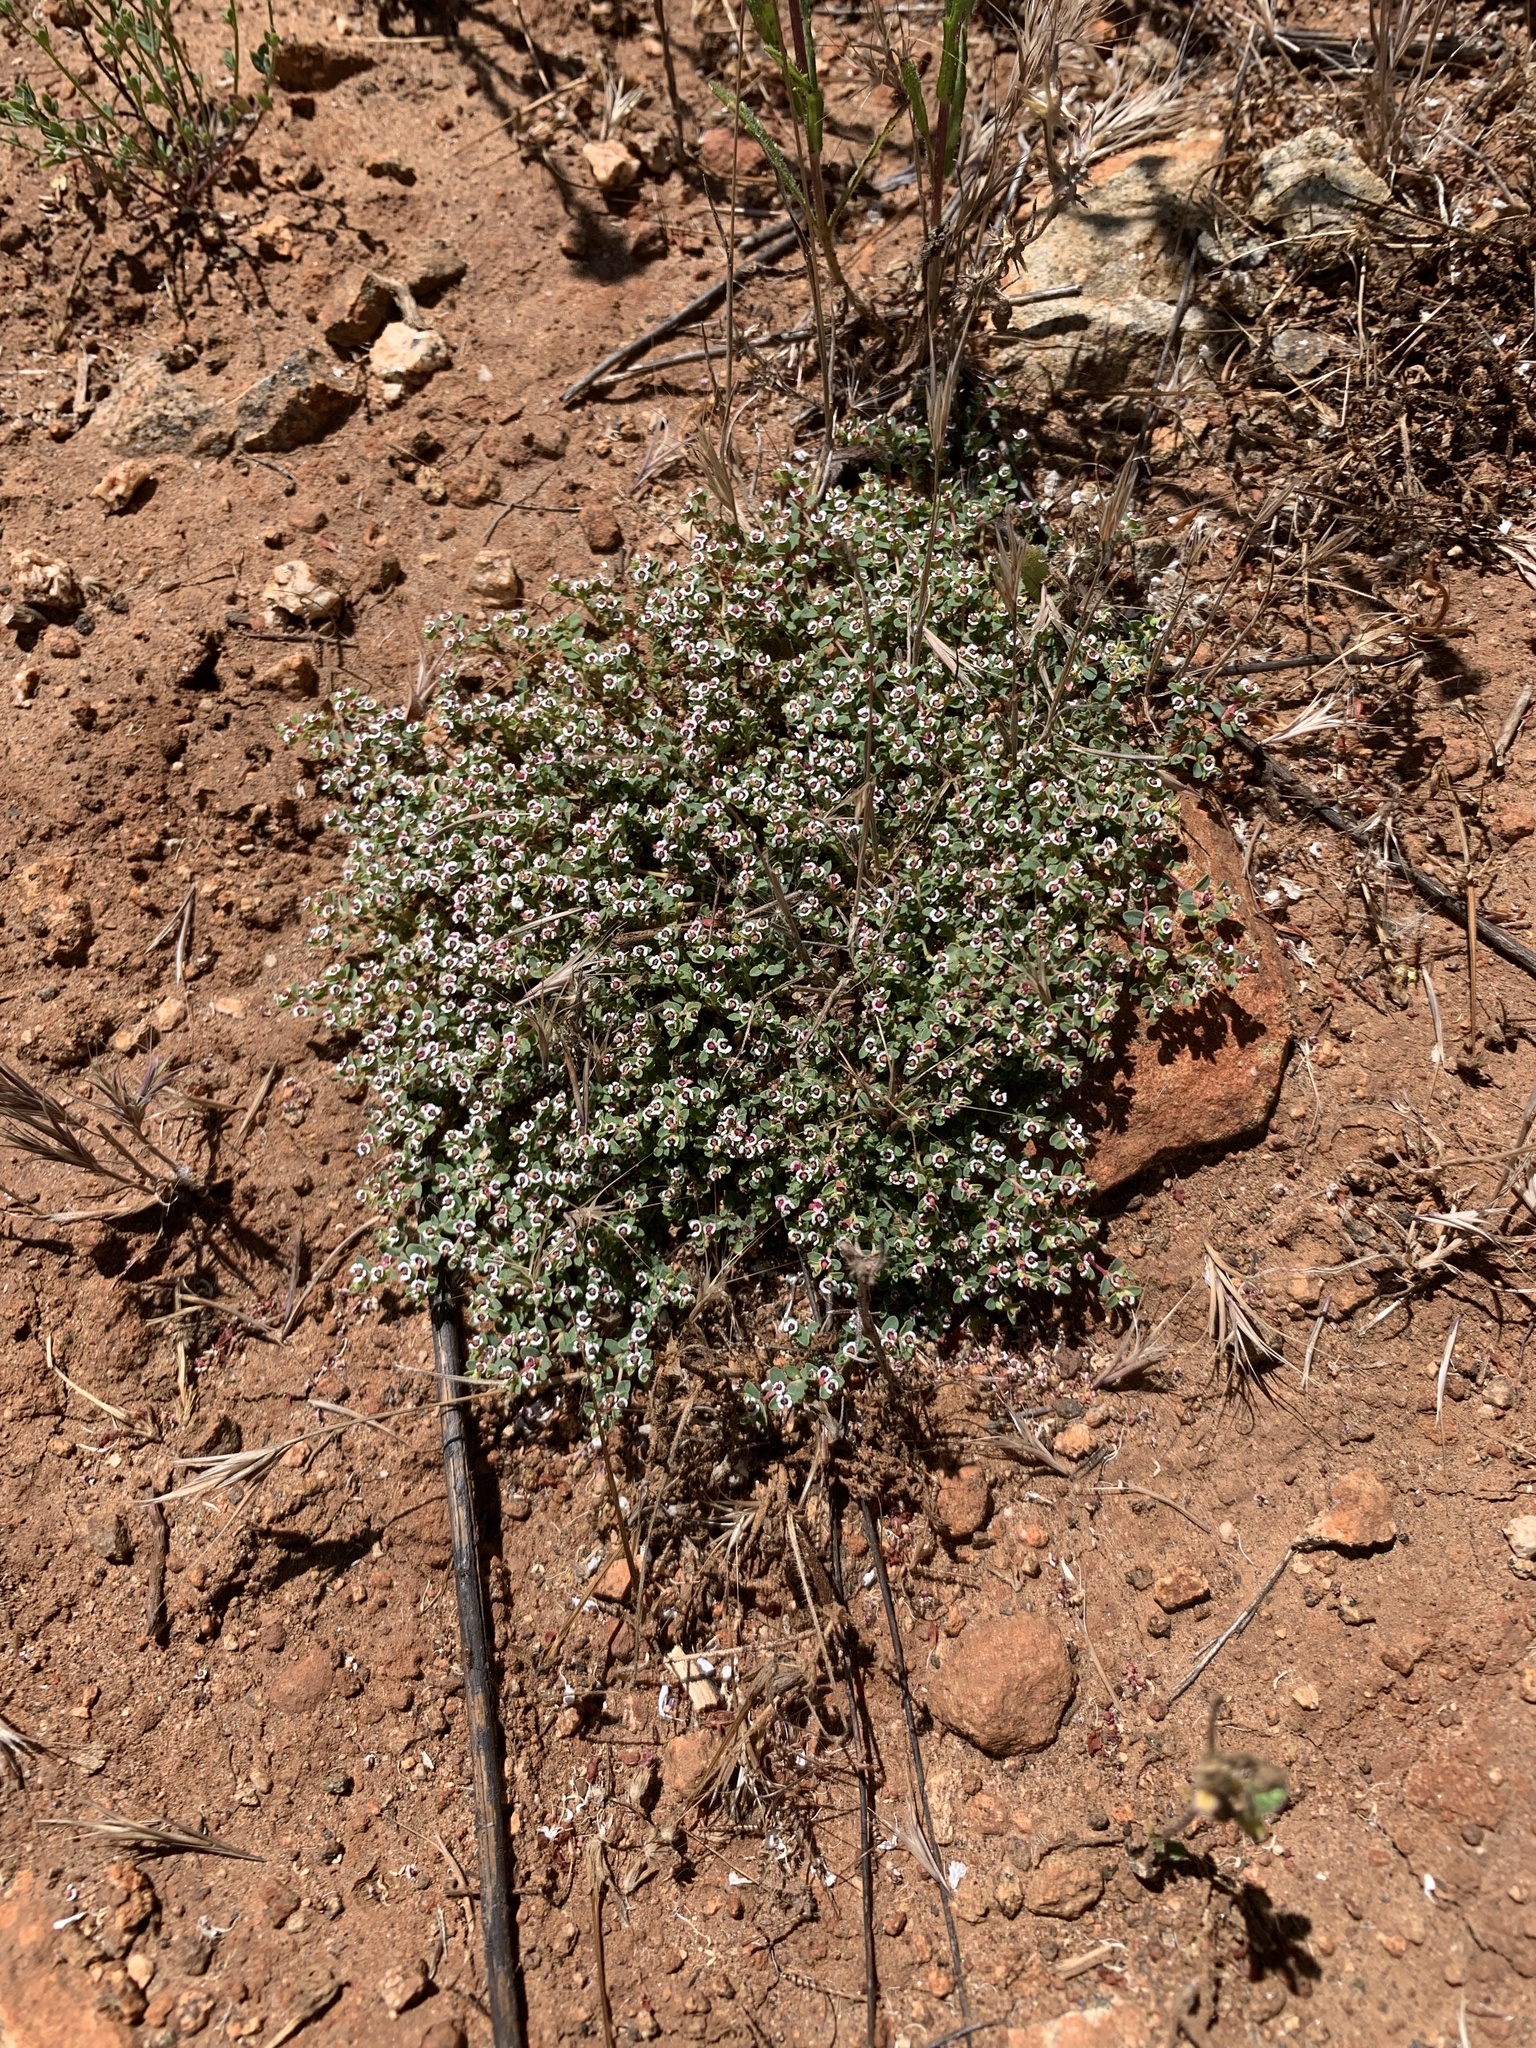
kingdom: Plantae
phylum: Tracheophyta
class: Magnoliopsida
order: Malpighiales
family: Euphorbiaceae
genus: Euphorbia
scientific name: Euphorbia polycarpa
